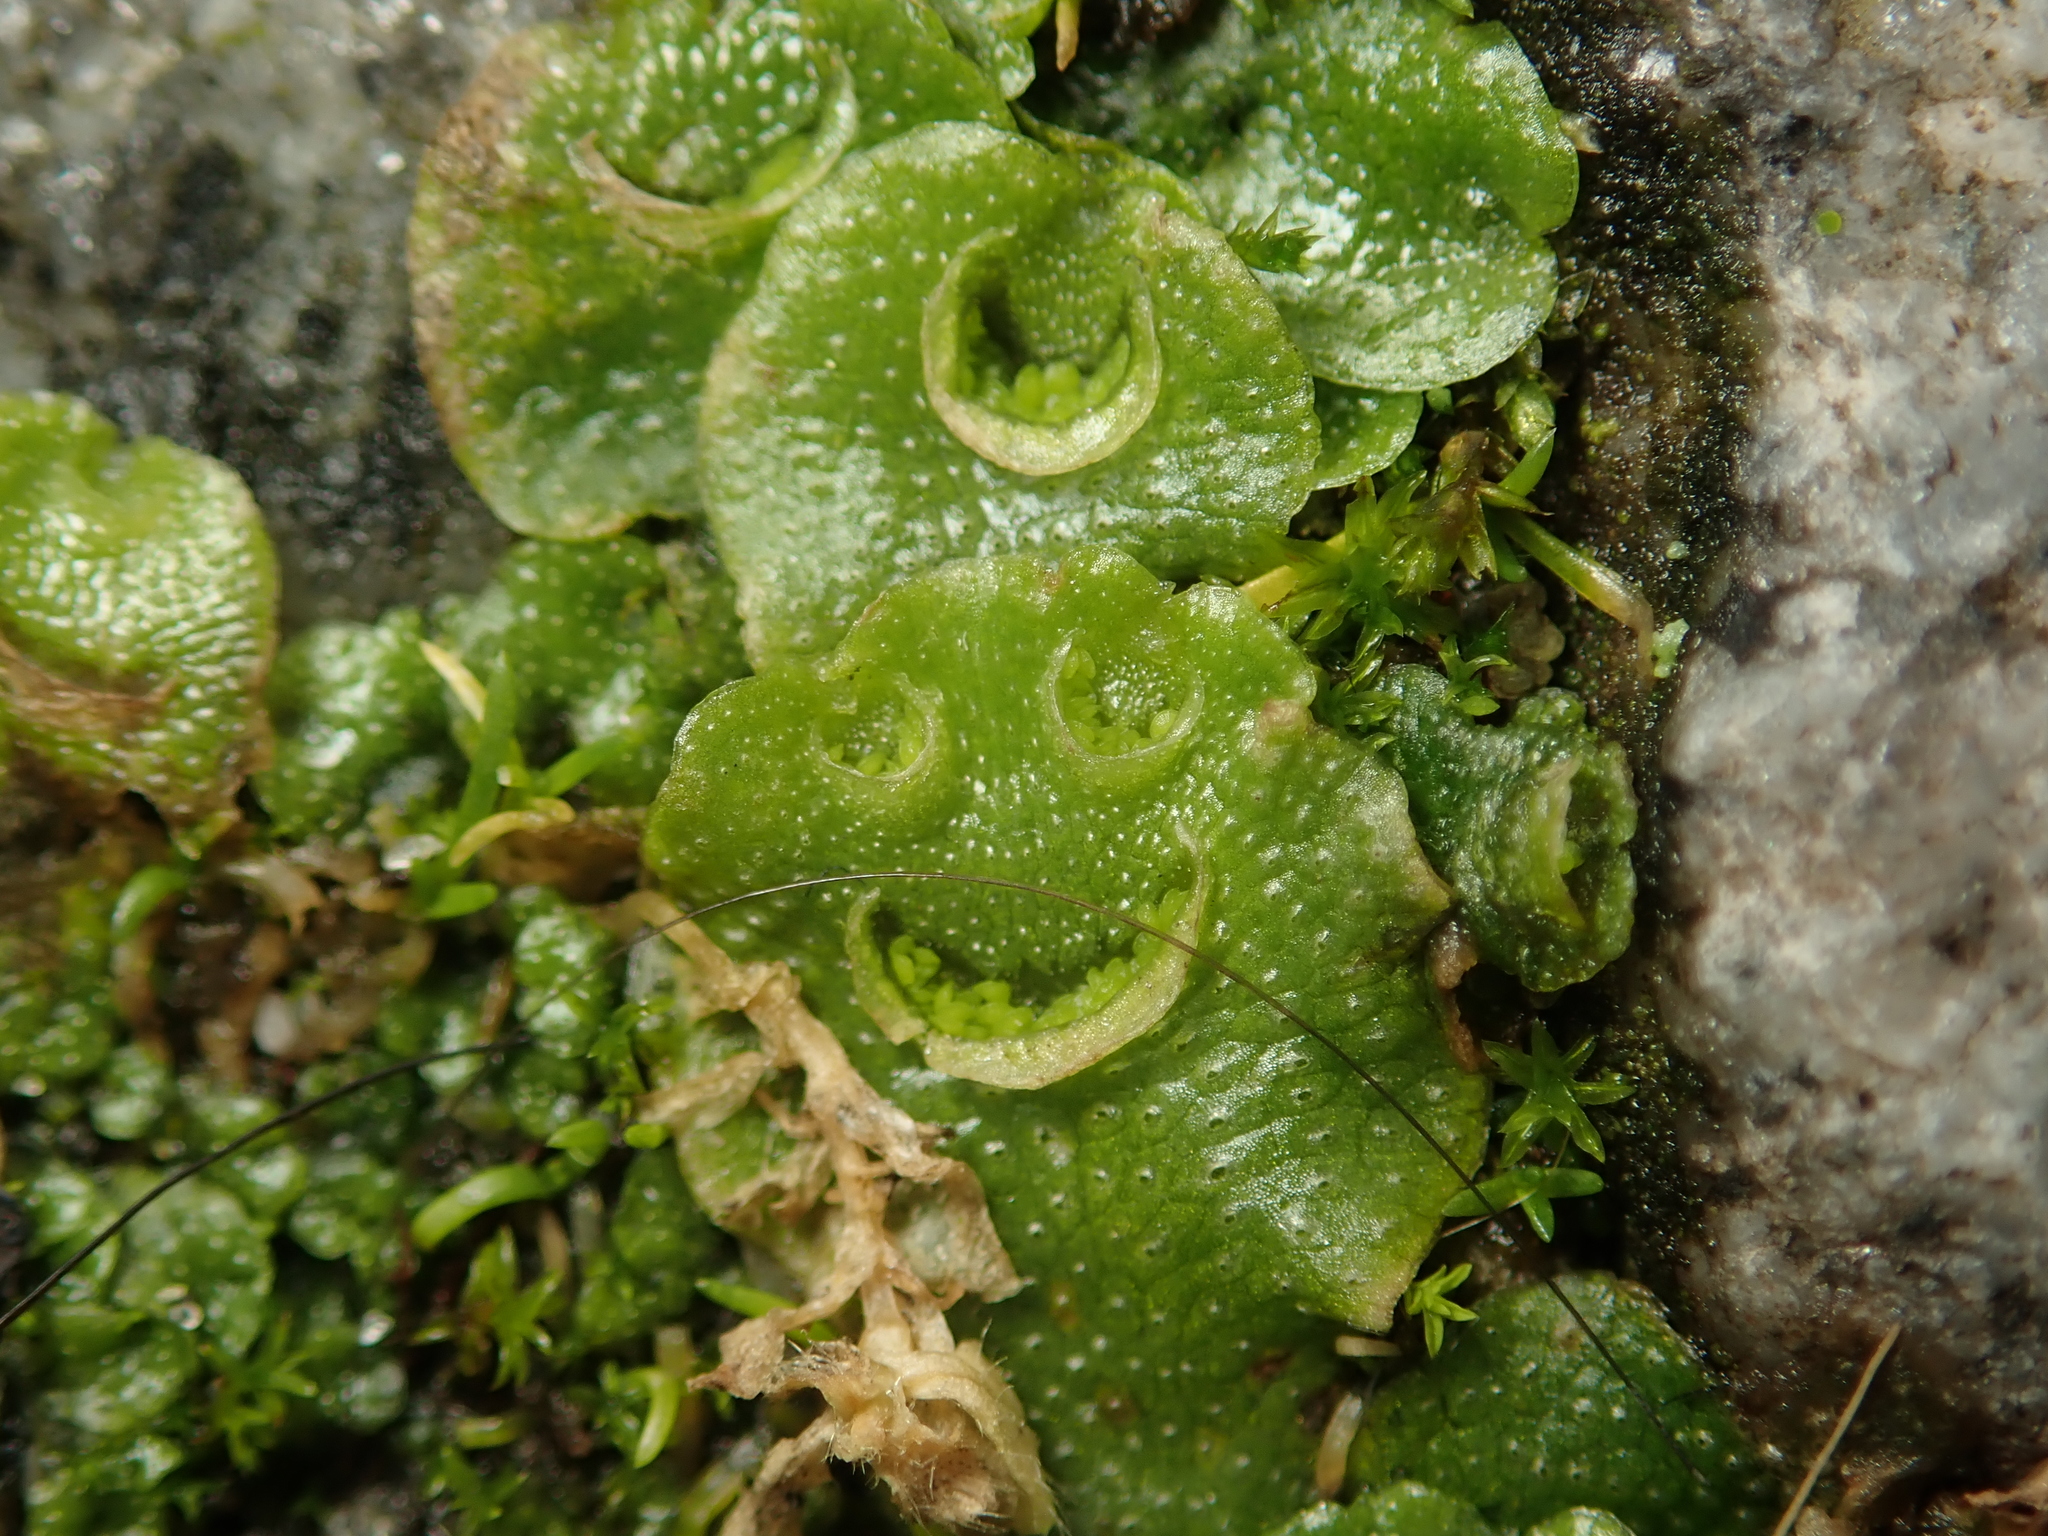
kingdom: Plantae
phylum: Marchantiophyta
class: Marchantiopsida
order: Lunulariales
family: Lunulariaceae
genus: Lunularia
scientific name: Lunularia cruciata
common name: Crescent-cup liverwort
